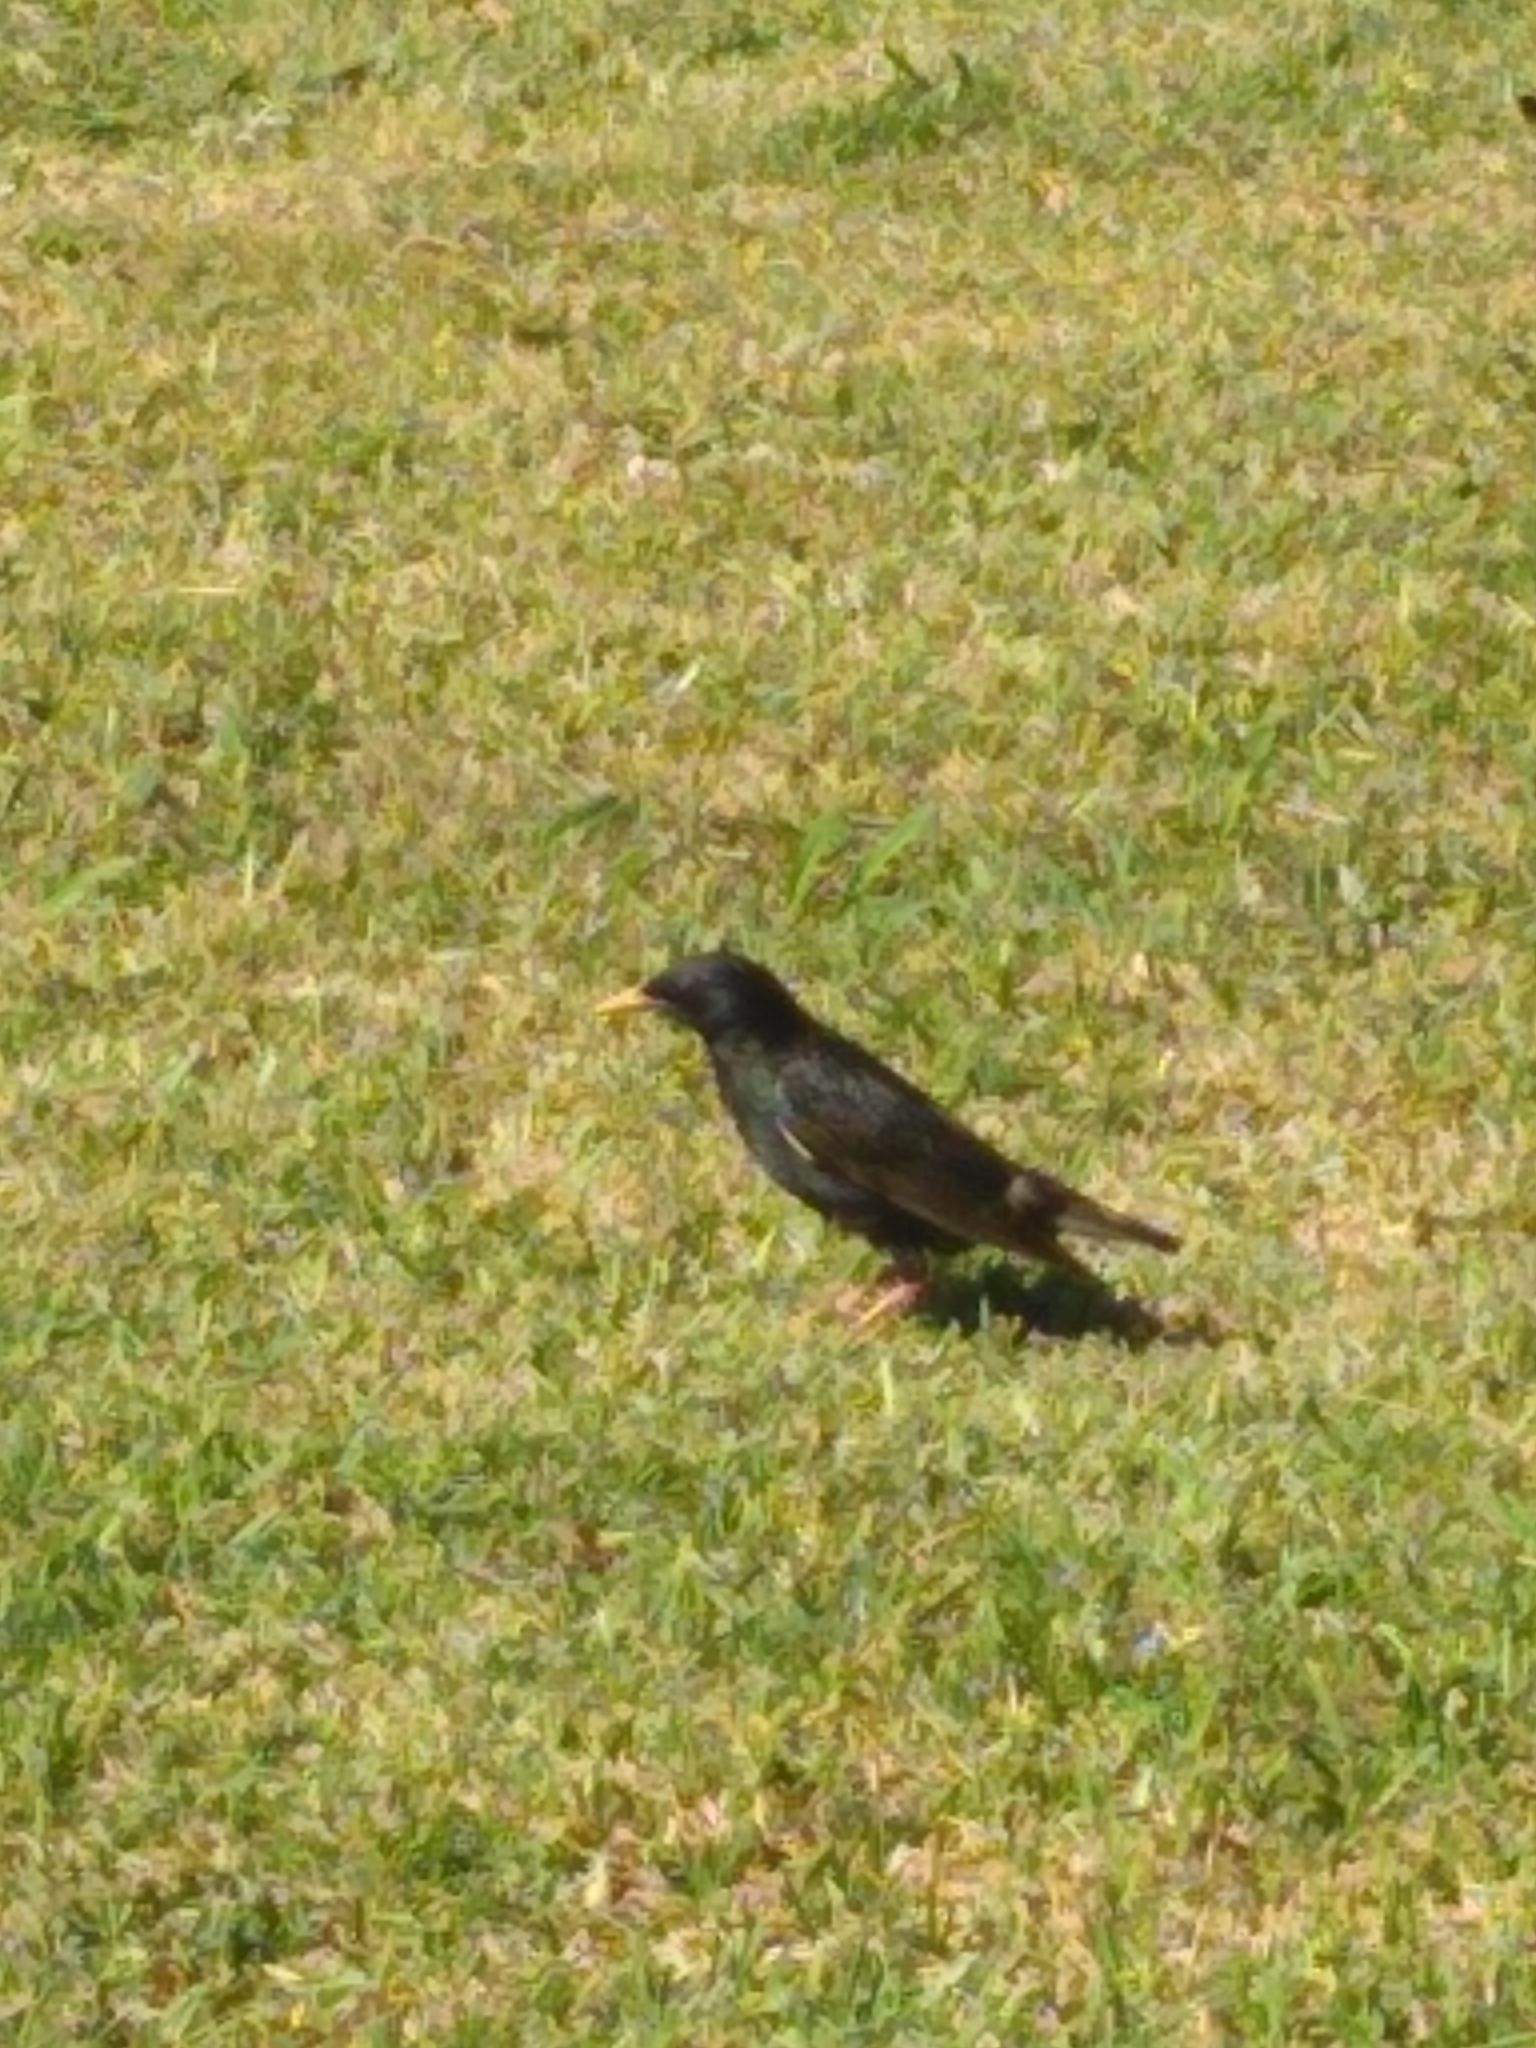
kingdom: Animalia
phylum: Chordata
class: Aves
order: Passeriformes
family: Sturnidae
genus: Sturnus
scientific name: Sturnus vulgaris
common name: Common starling
